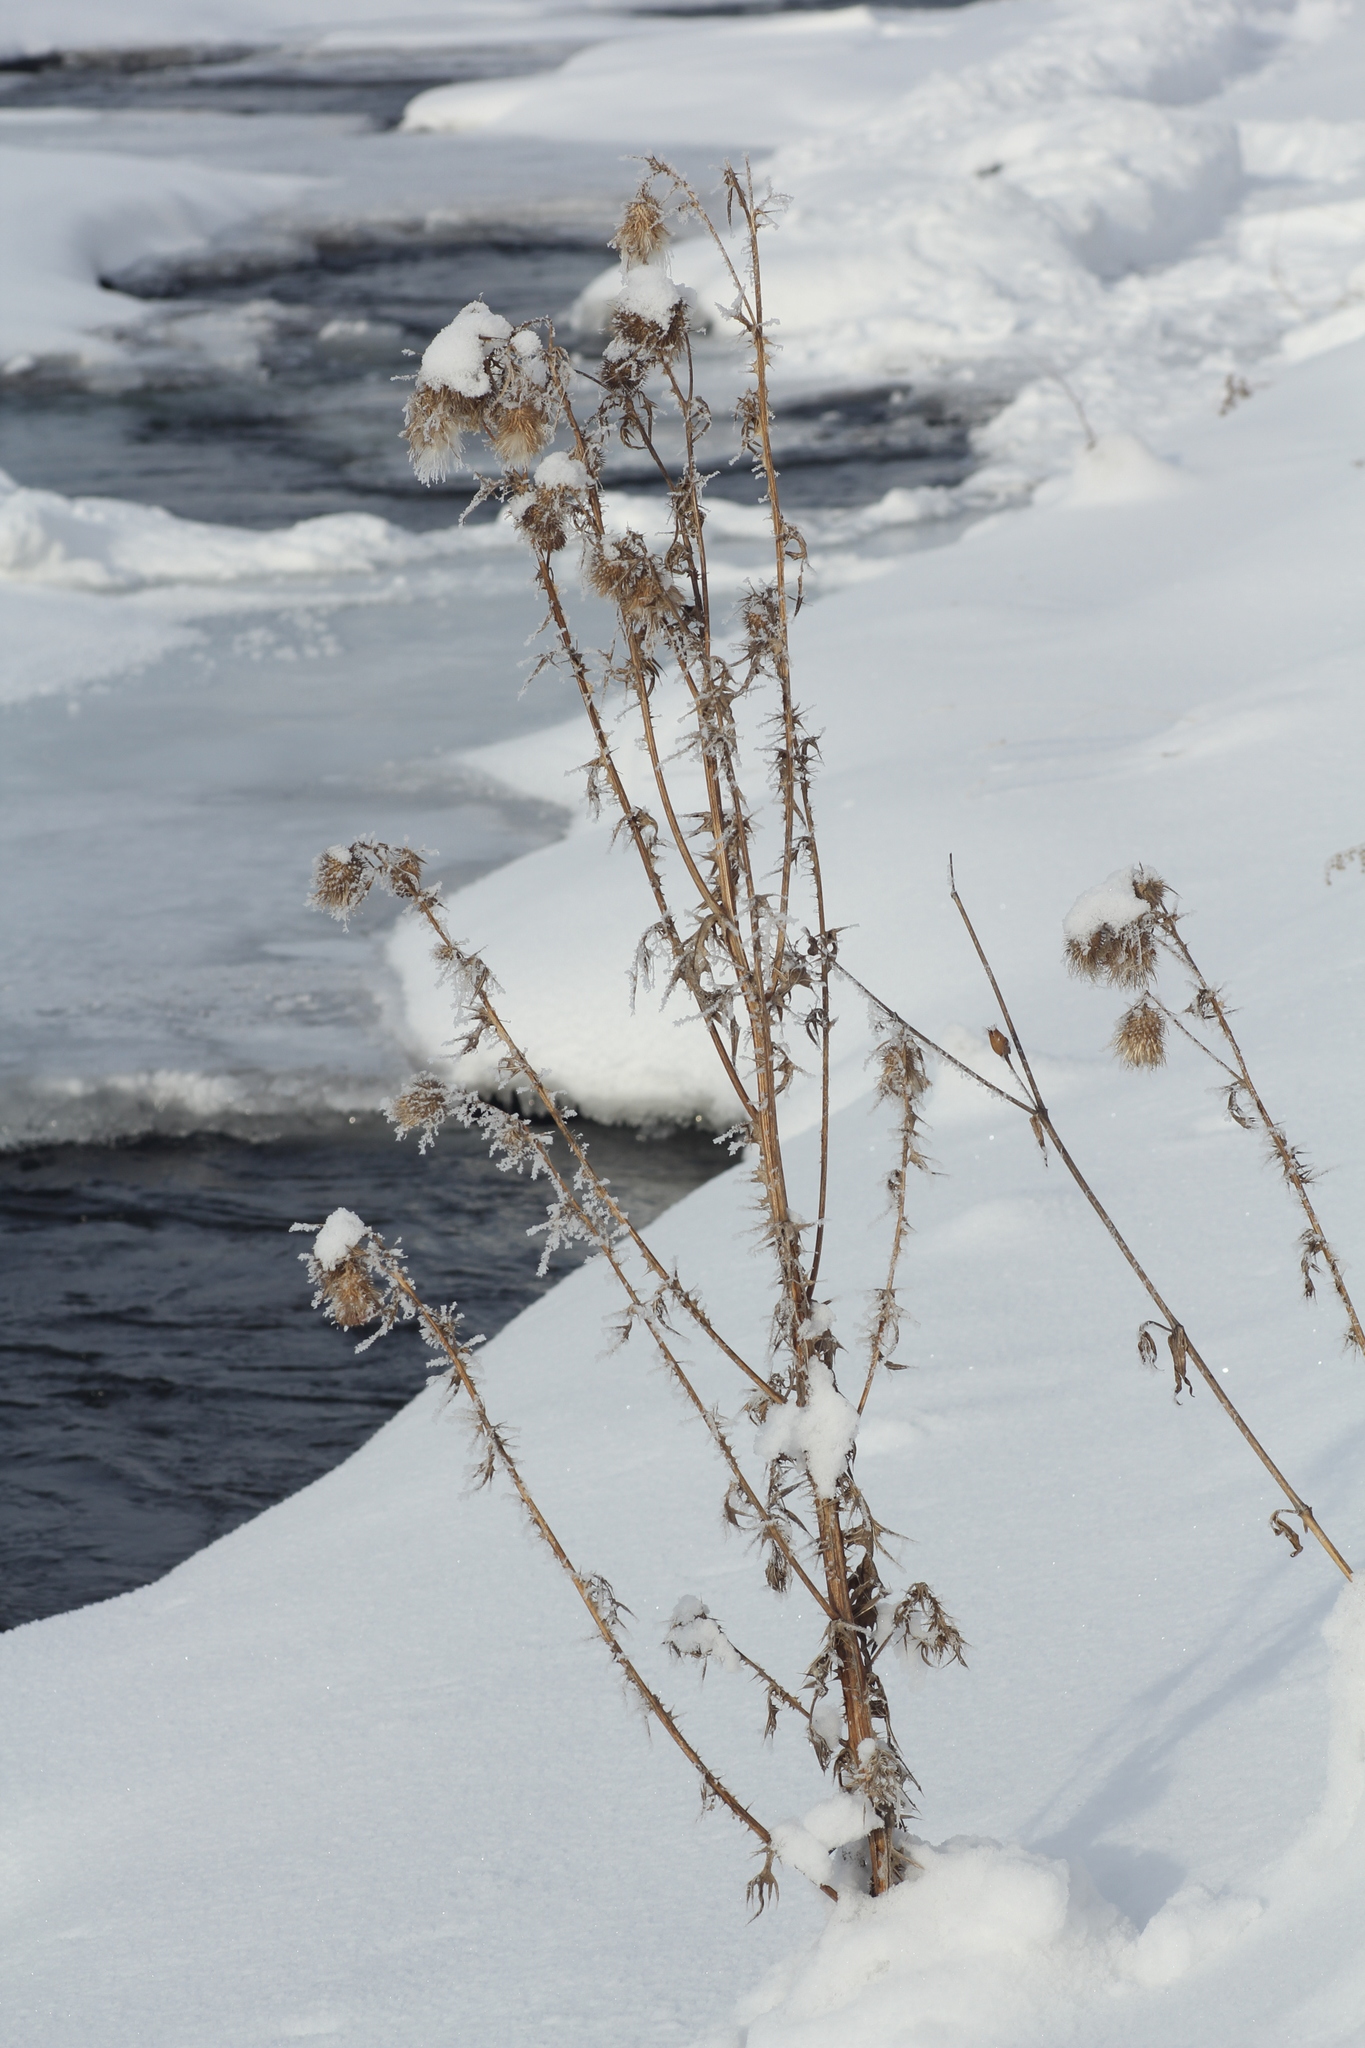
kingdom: Plantae
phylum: Tracheophyta
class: Magnoliopsida
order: Asterales
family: Asteraceae
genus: Cirsium
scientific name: Cirsium vulgare
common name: Bull thistle
